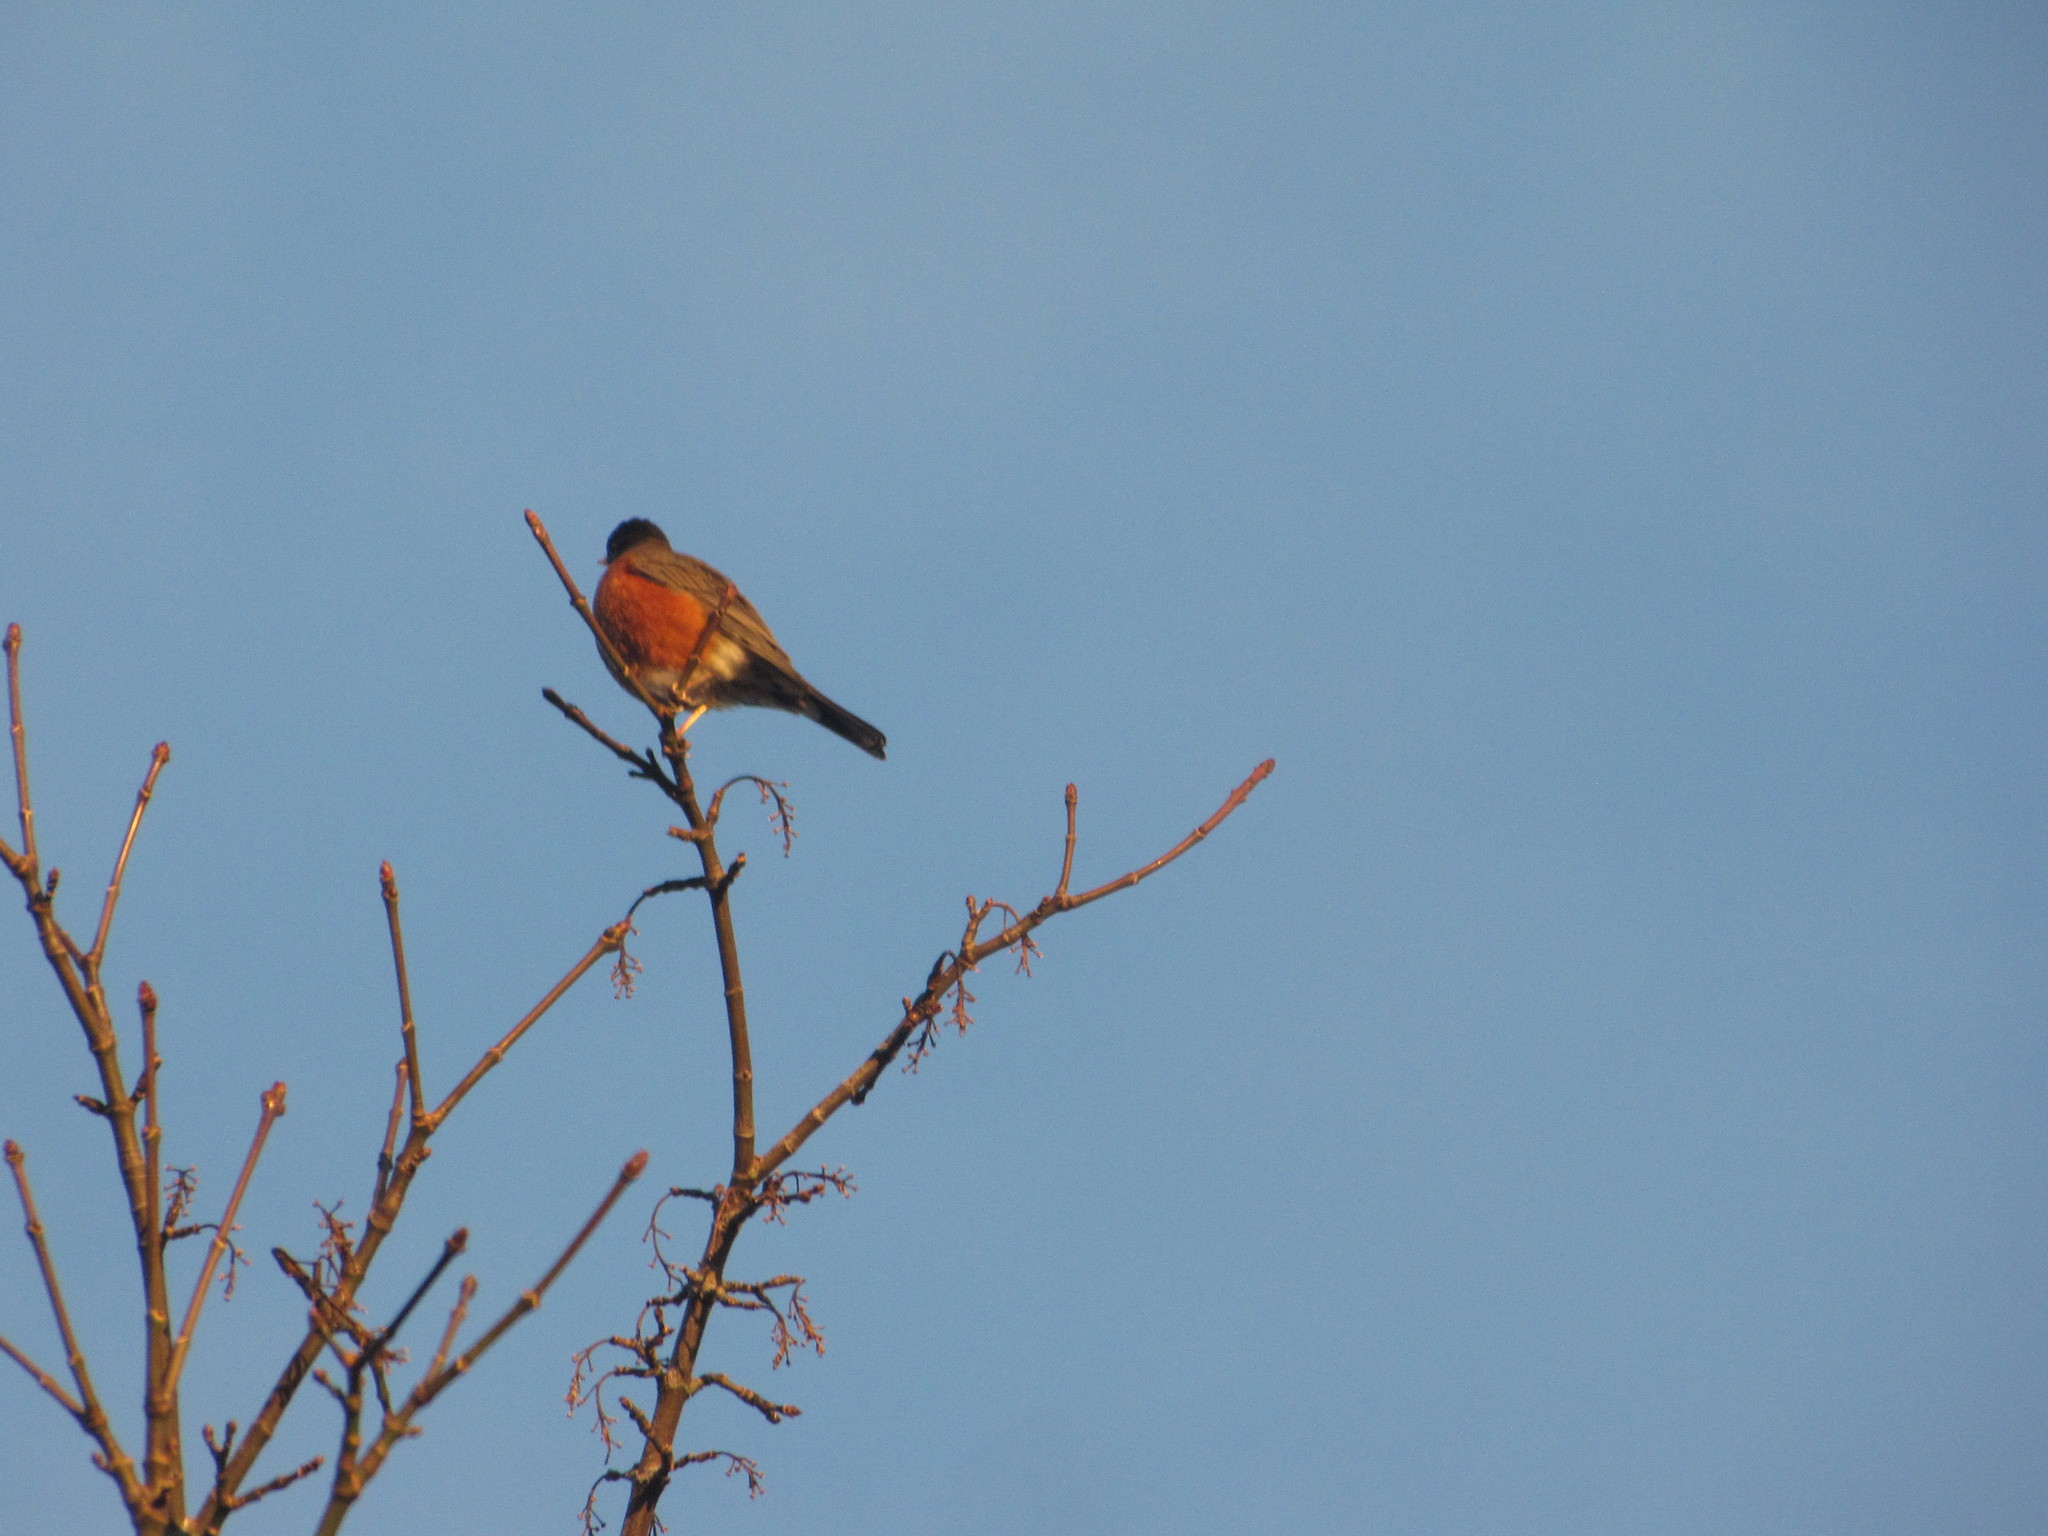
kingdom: Animalia
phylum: Chordata
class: Aves
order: Passeriformes
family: Turdidae
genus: Turdus
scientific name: Turdus migratorius
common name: American robin
